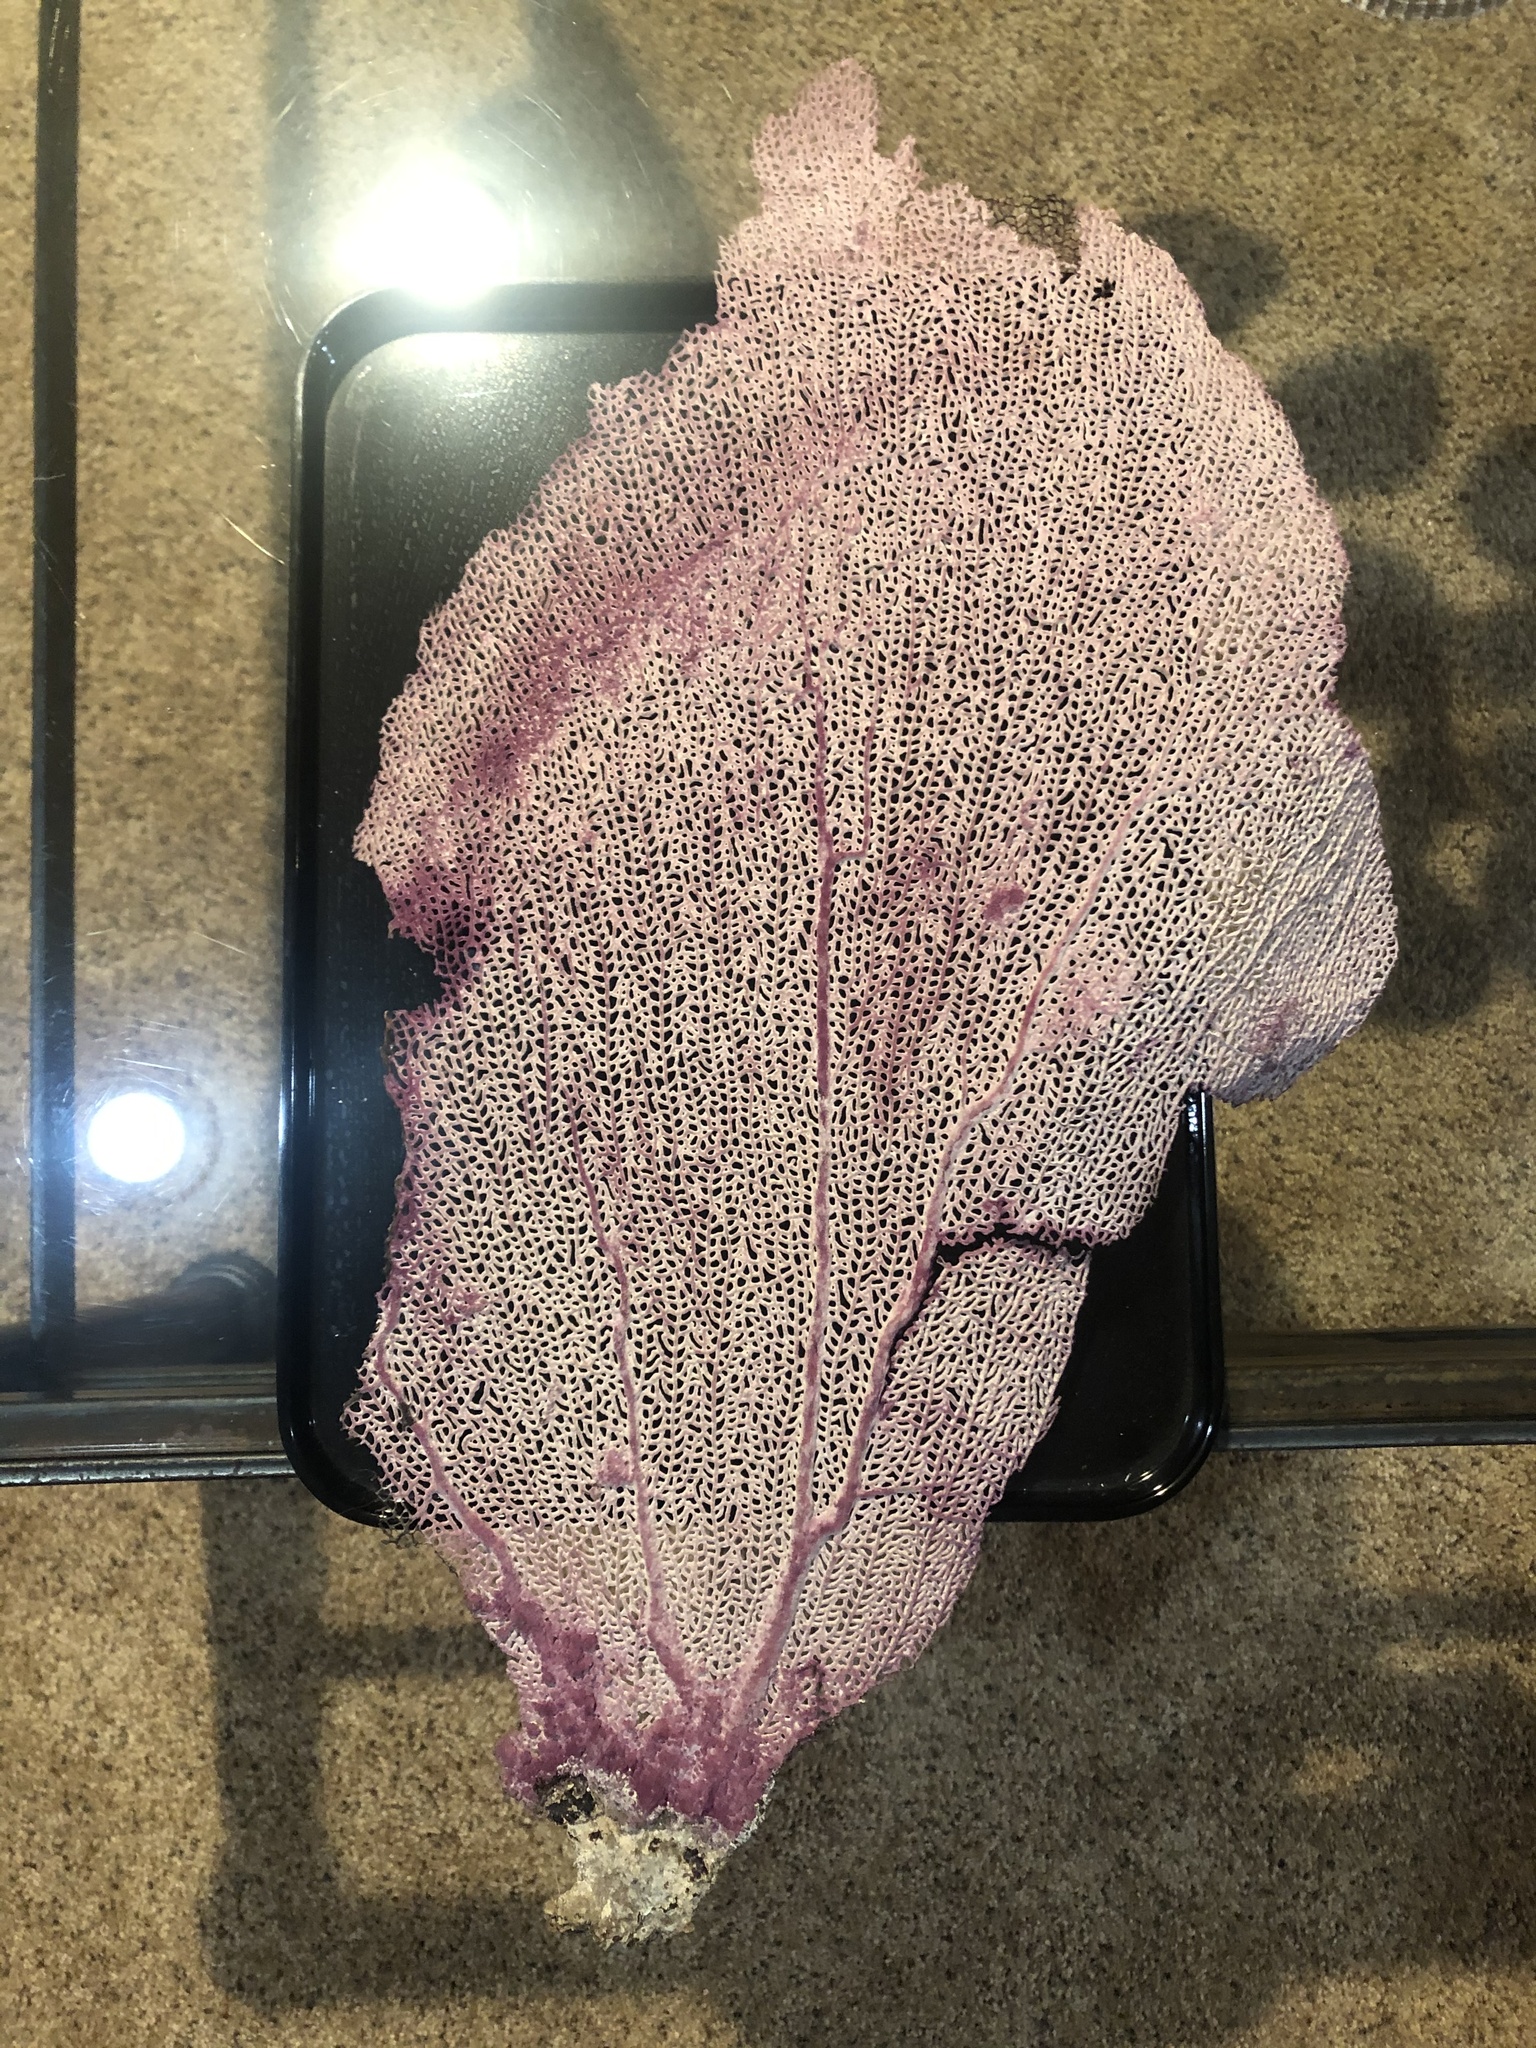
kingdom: Animalia
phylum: Cnidaria
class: Anthozoa
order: Malacalcyonacea
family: Gorgoniidae
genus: Gorgonia
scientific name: Gorgonia ventalina
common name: Common sea fan
